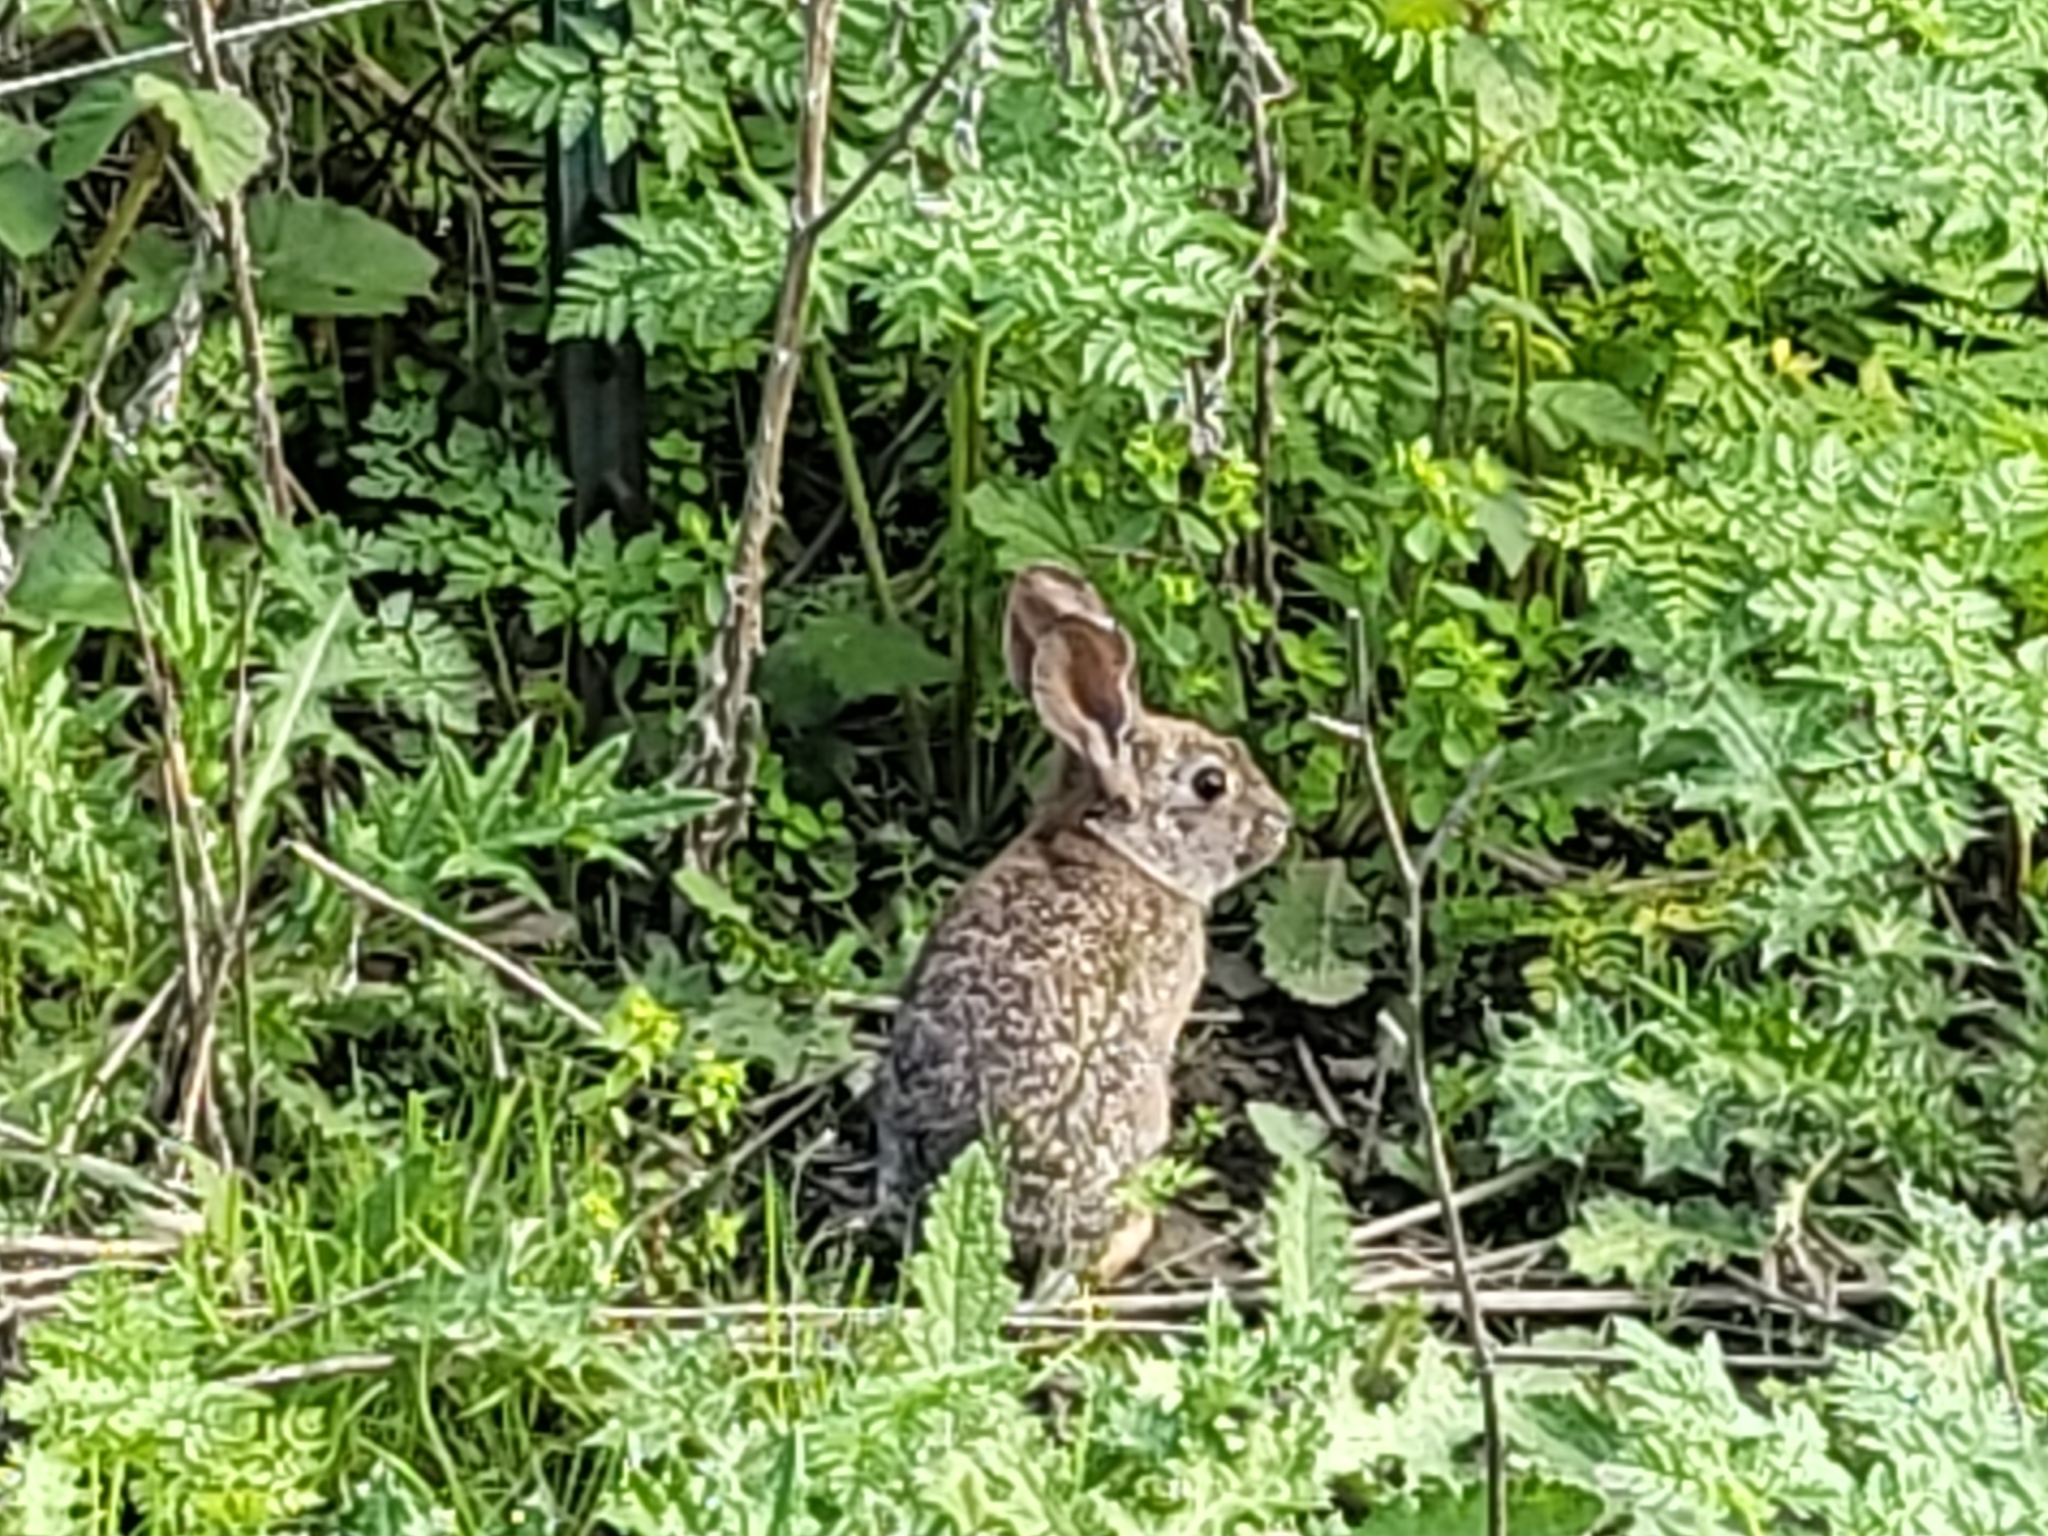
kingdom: Animalia
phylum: Chordata
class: Mammalia
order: Lagomorpha
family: Leporidae
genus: Sylvilagus
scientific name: Sylvilagus bachmani
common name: Brush rabbit
